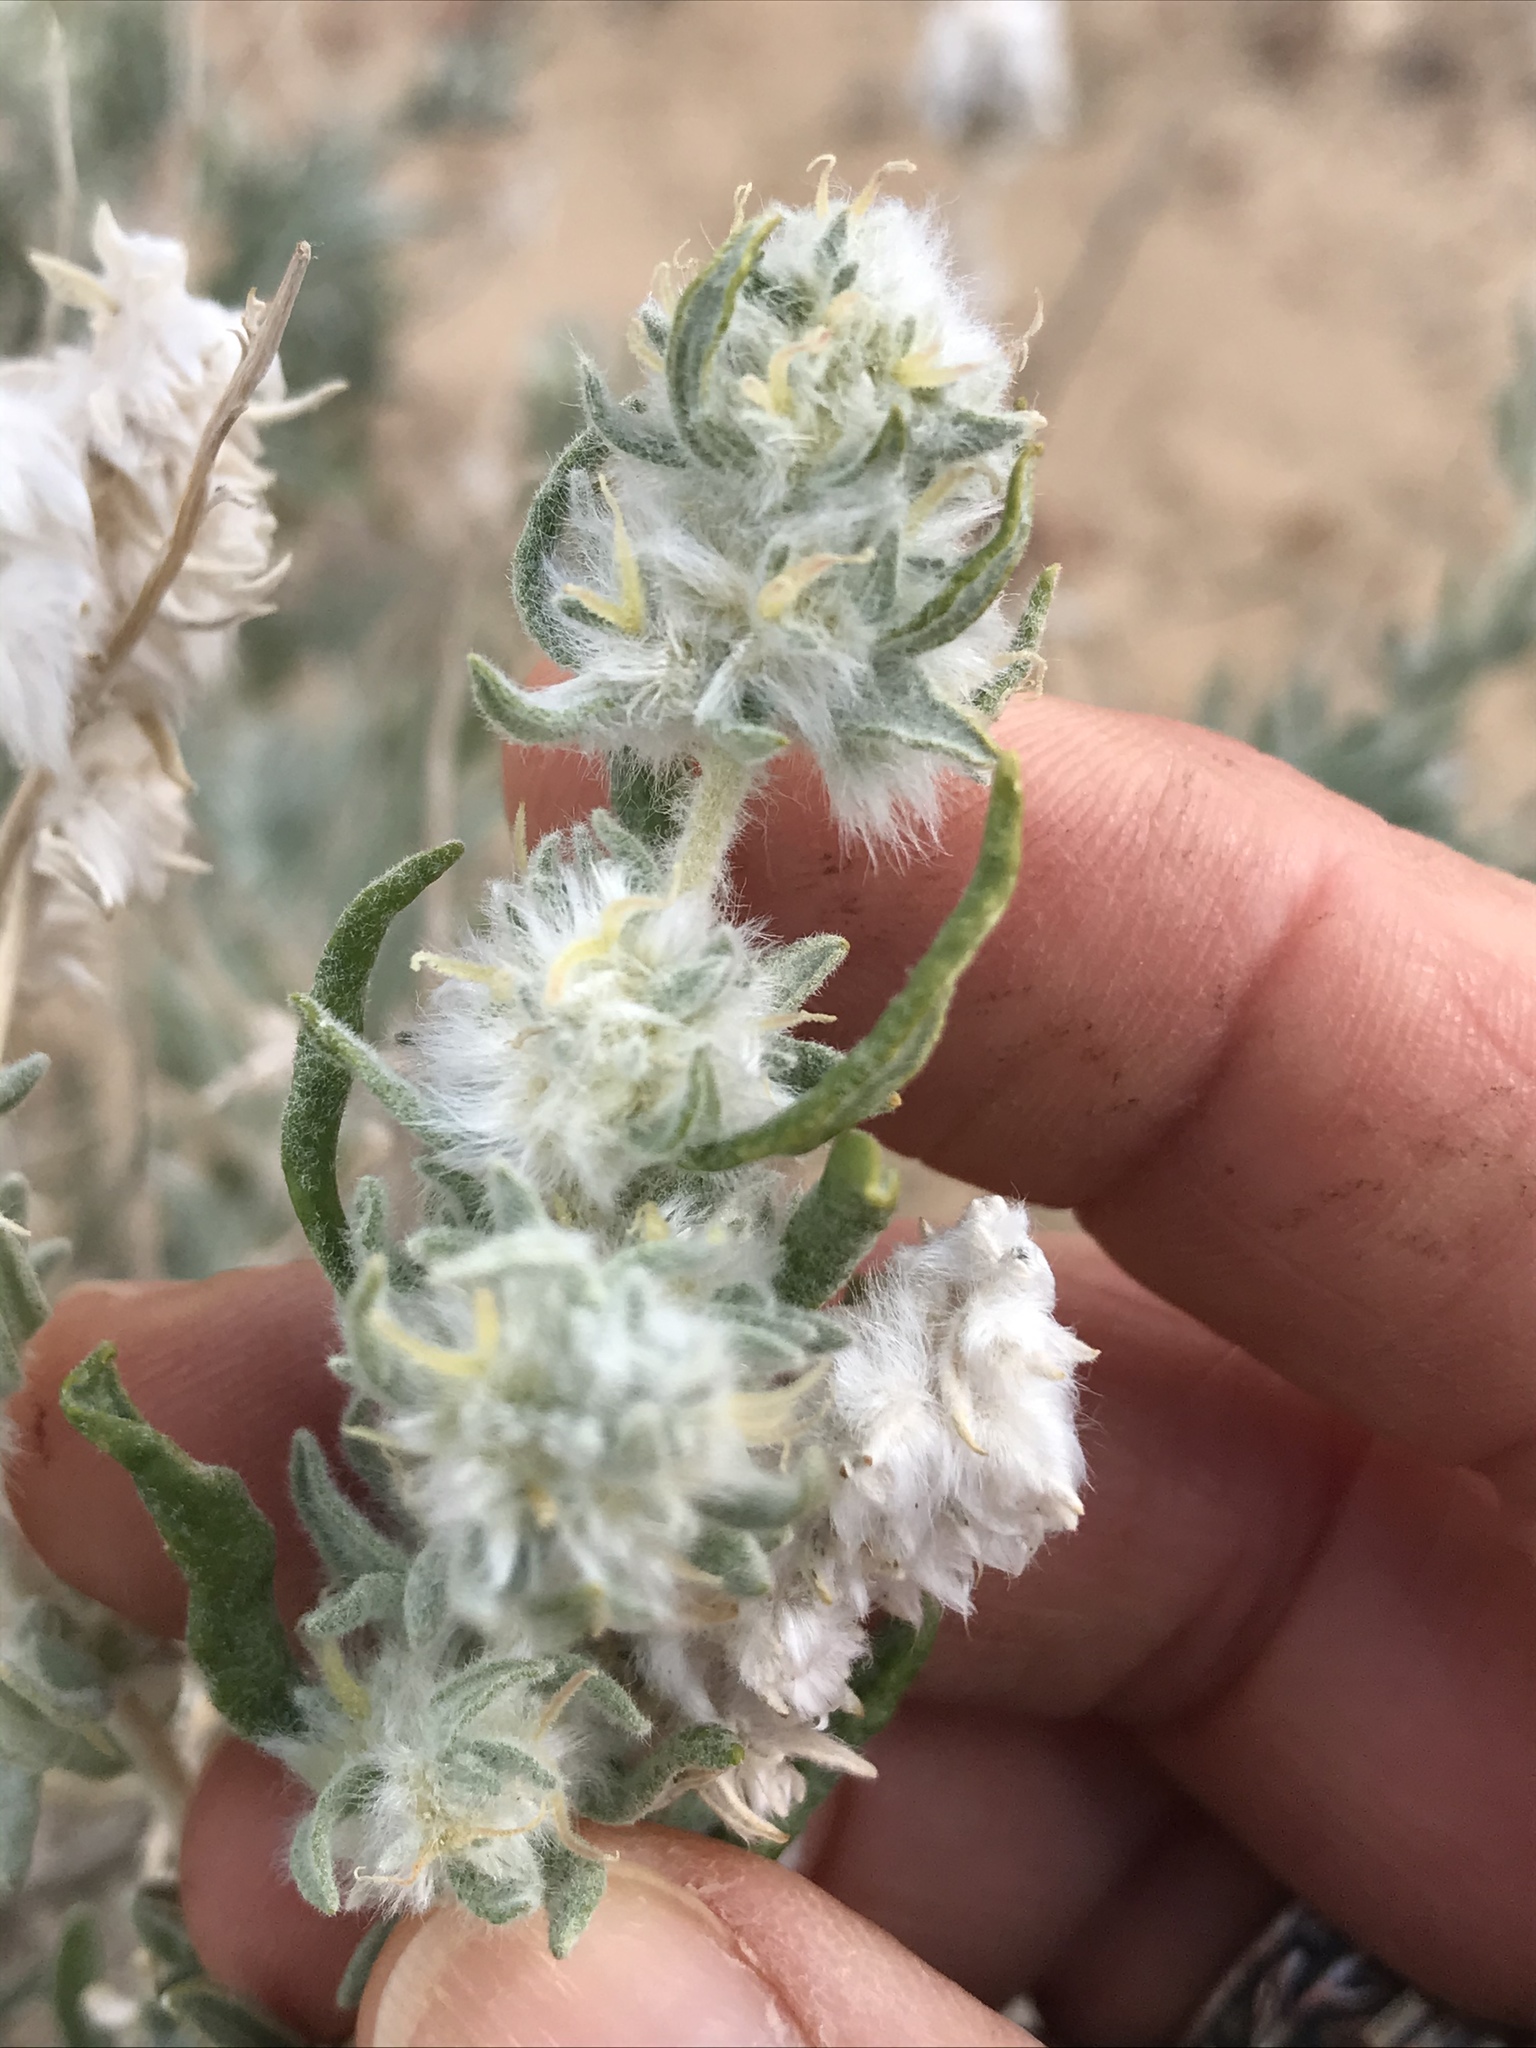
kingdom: Plantae
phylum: Tracheophyta
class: Magnoliopsida
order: Caryophyllales
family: Amaranthaceae
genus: Krascheninnikovia
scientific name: Krascheninnikovia lanata
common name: Winterfat
